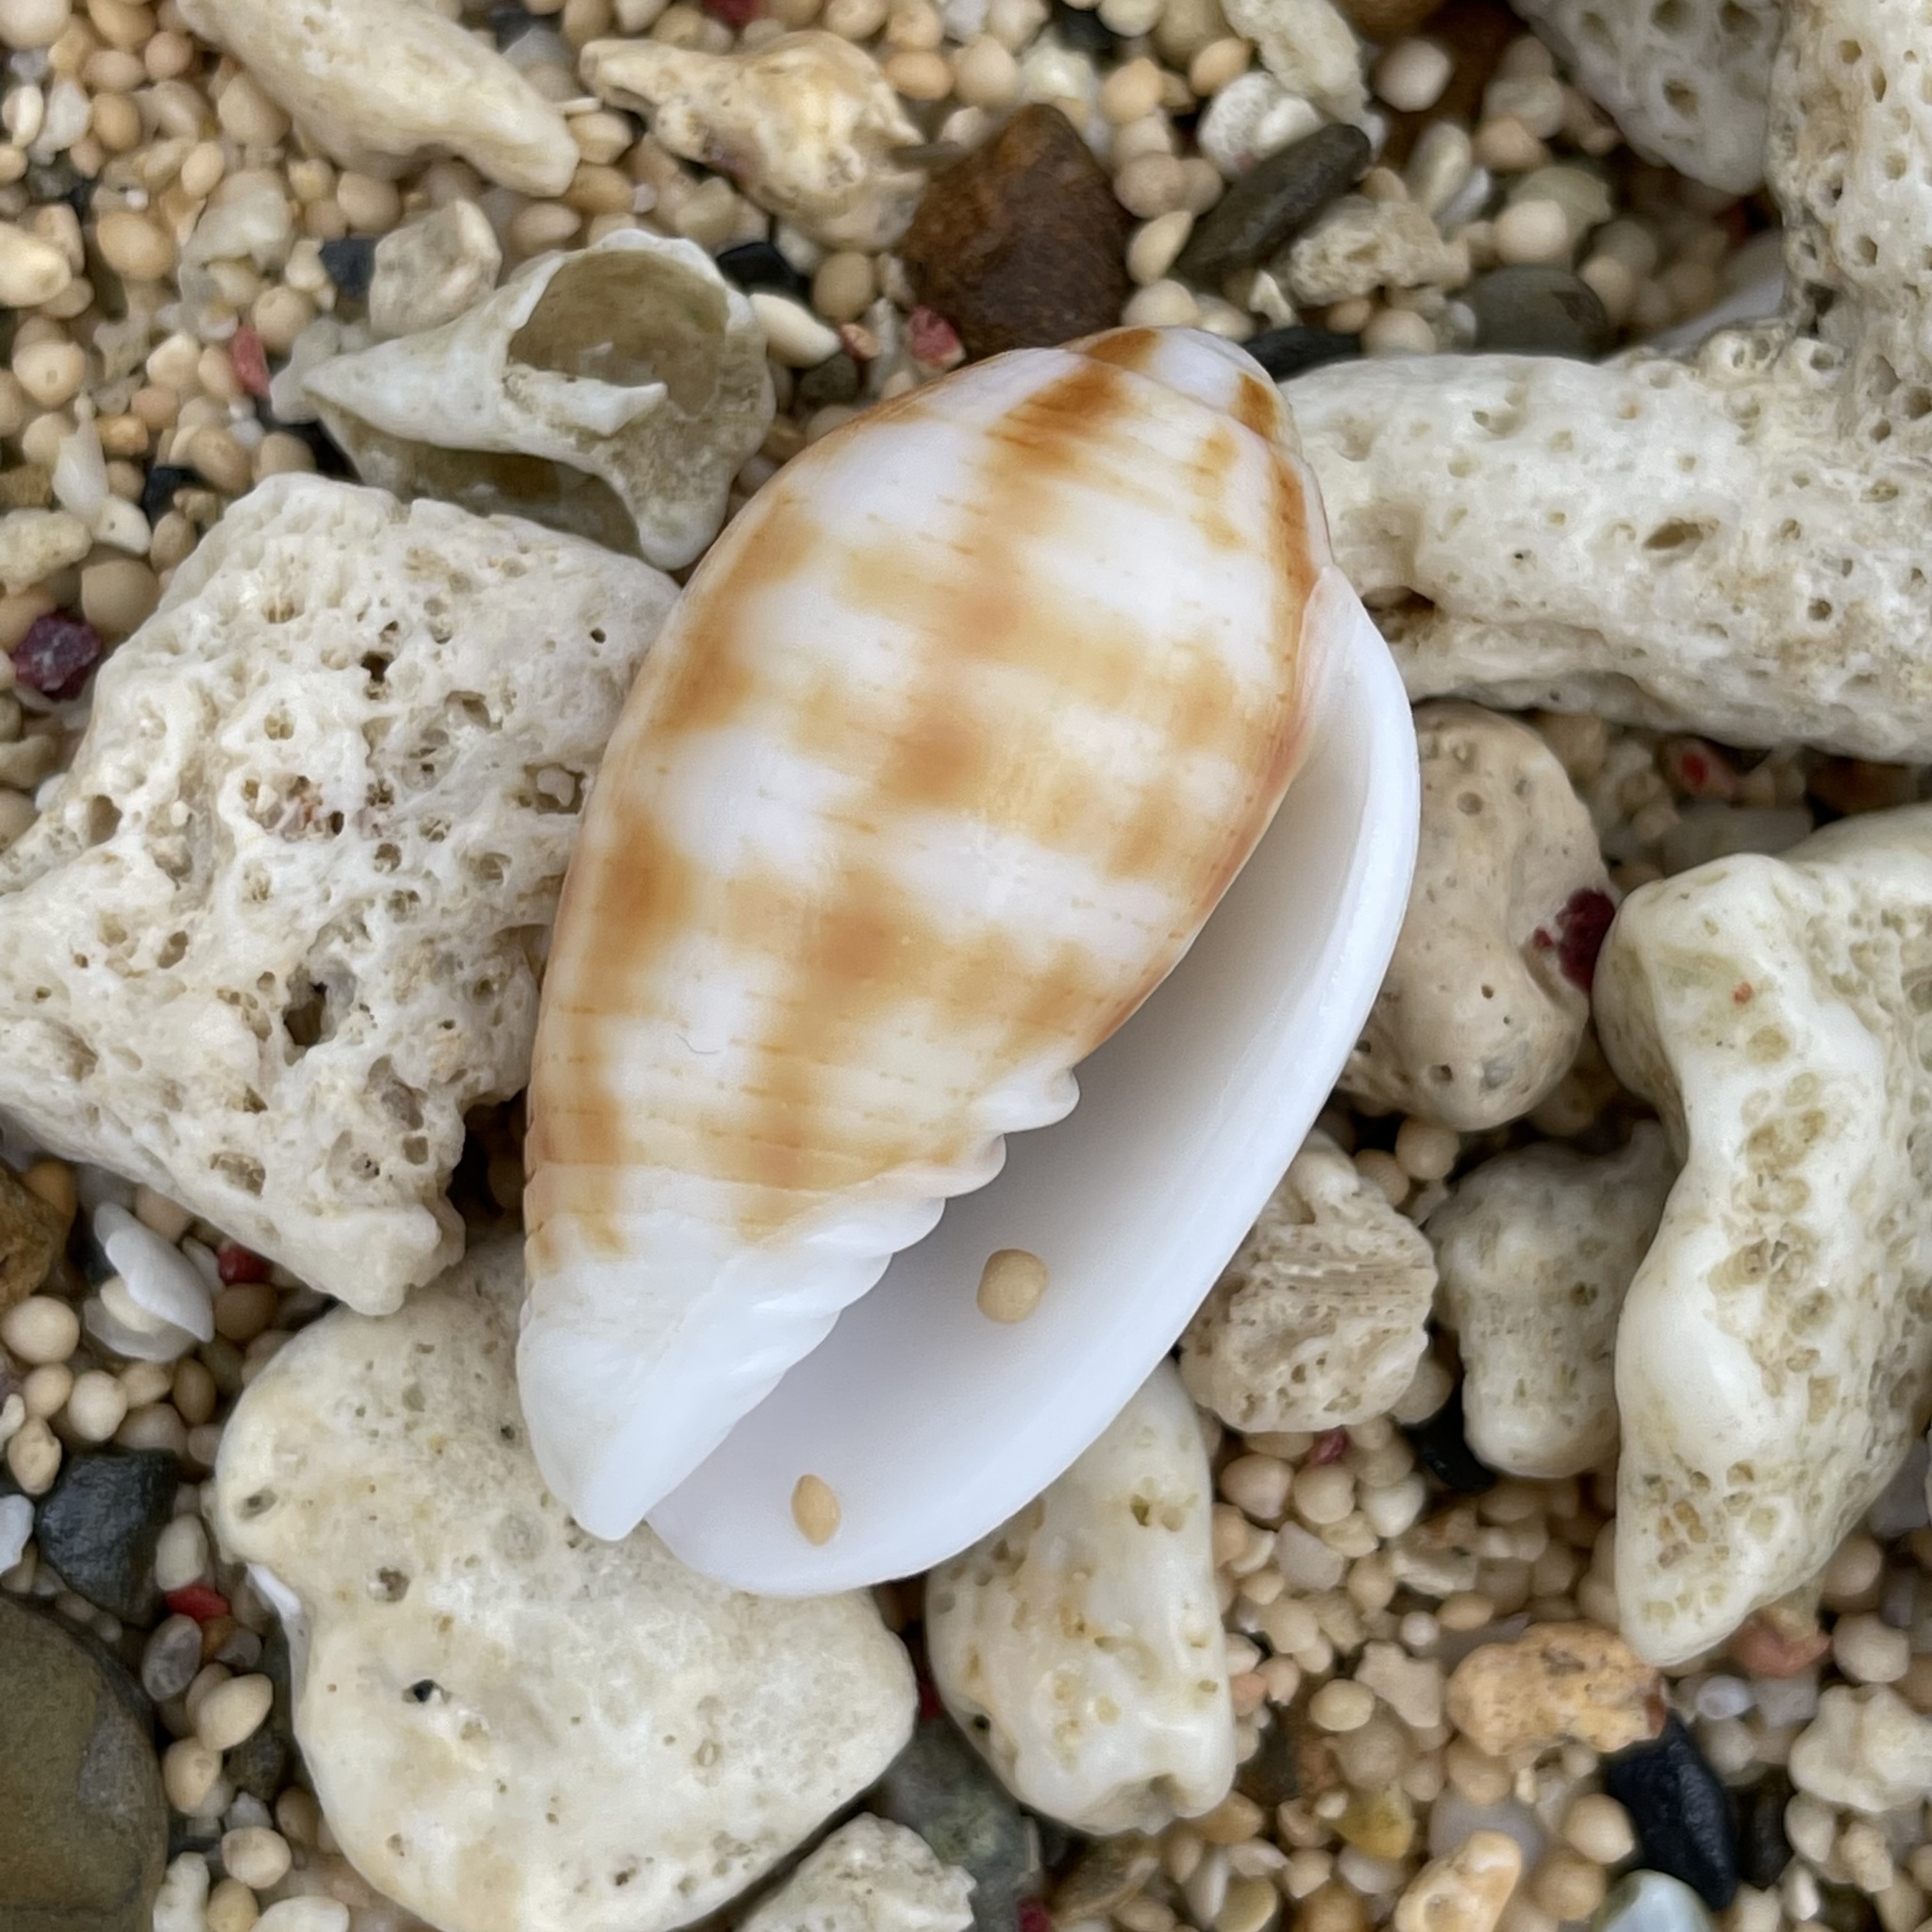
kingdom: Animalia
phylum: Mollusca
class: Gastropoda
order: Neogastropoda
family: Mitridae
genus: Pterygia
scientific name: Pterygia dactylus
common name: Finger miter
